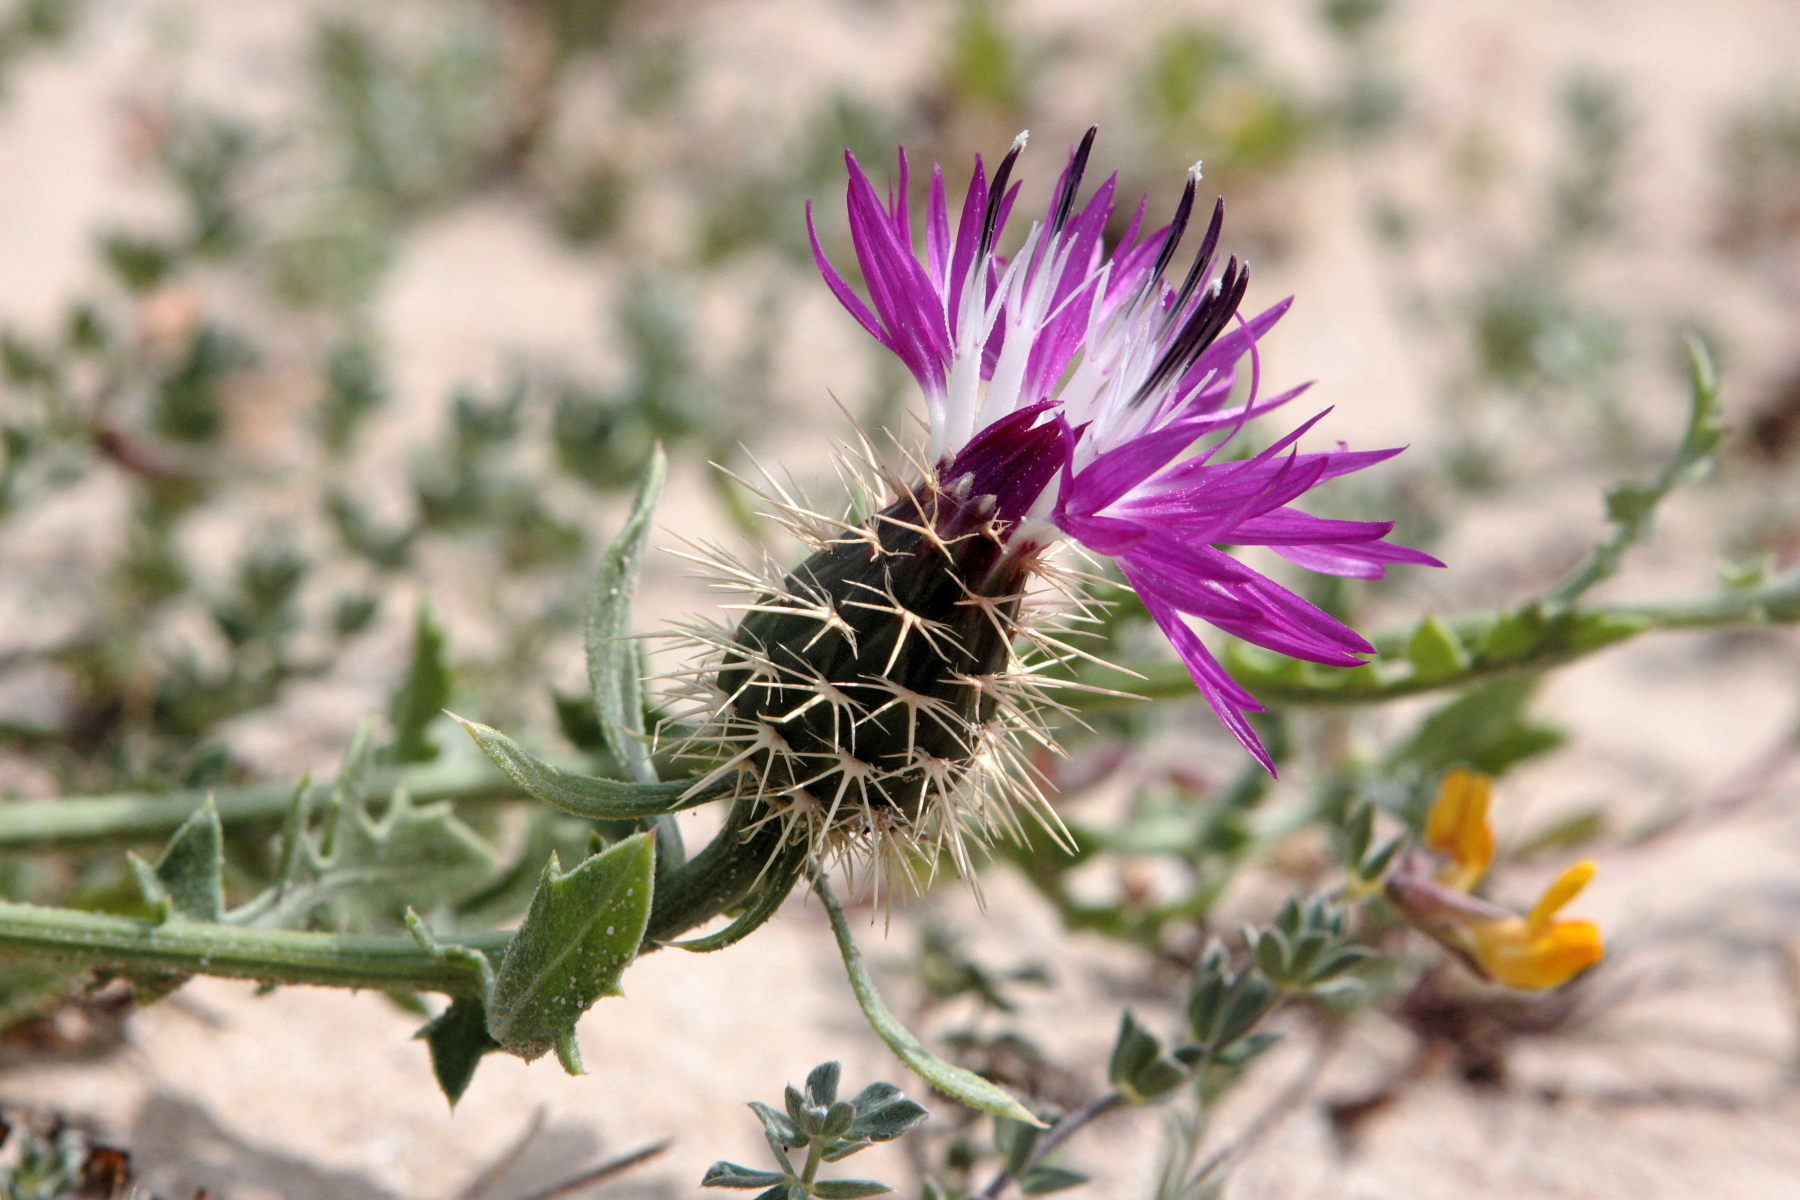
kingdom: Plantae
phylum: Tracheophyta
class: Magnoliopsida
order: Asterales
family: Asteraceae
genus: Centaurea
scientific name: Centaurea sphaerocephala
